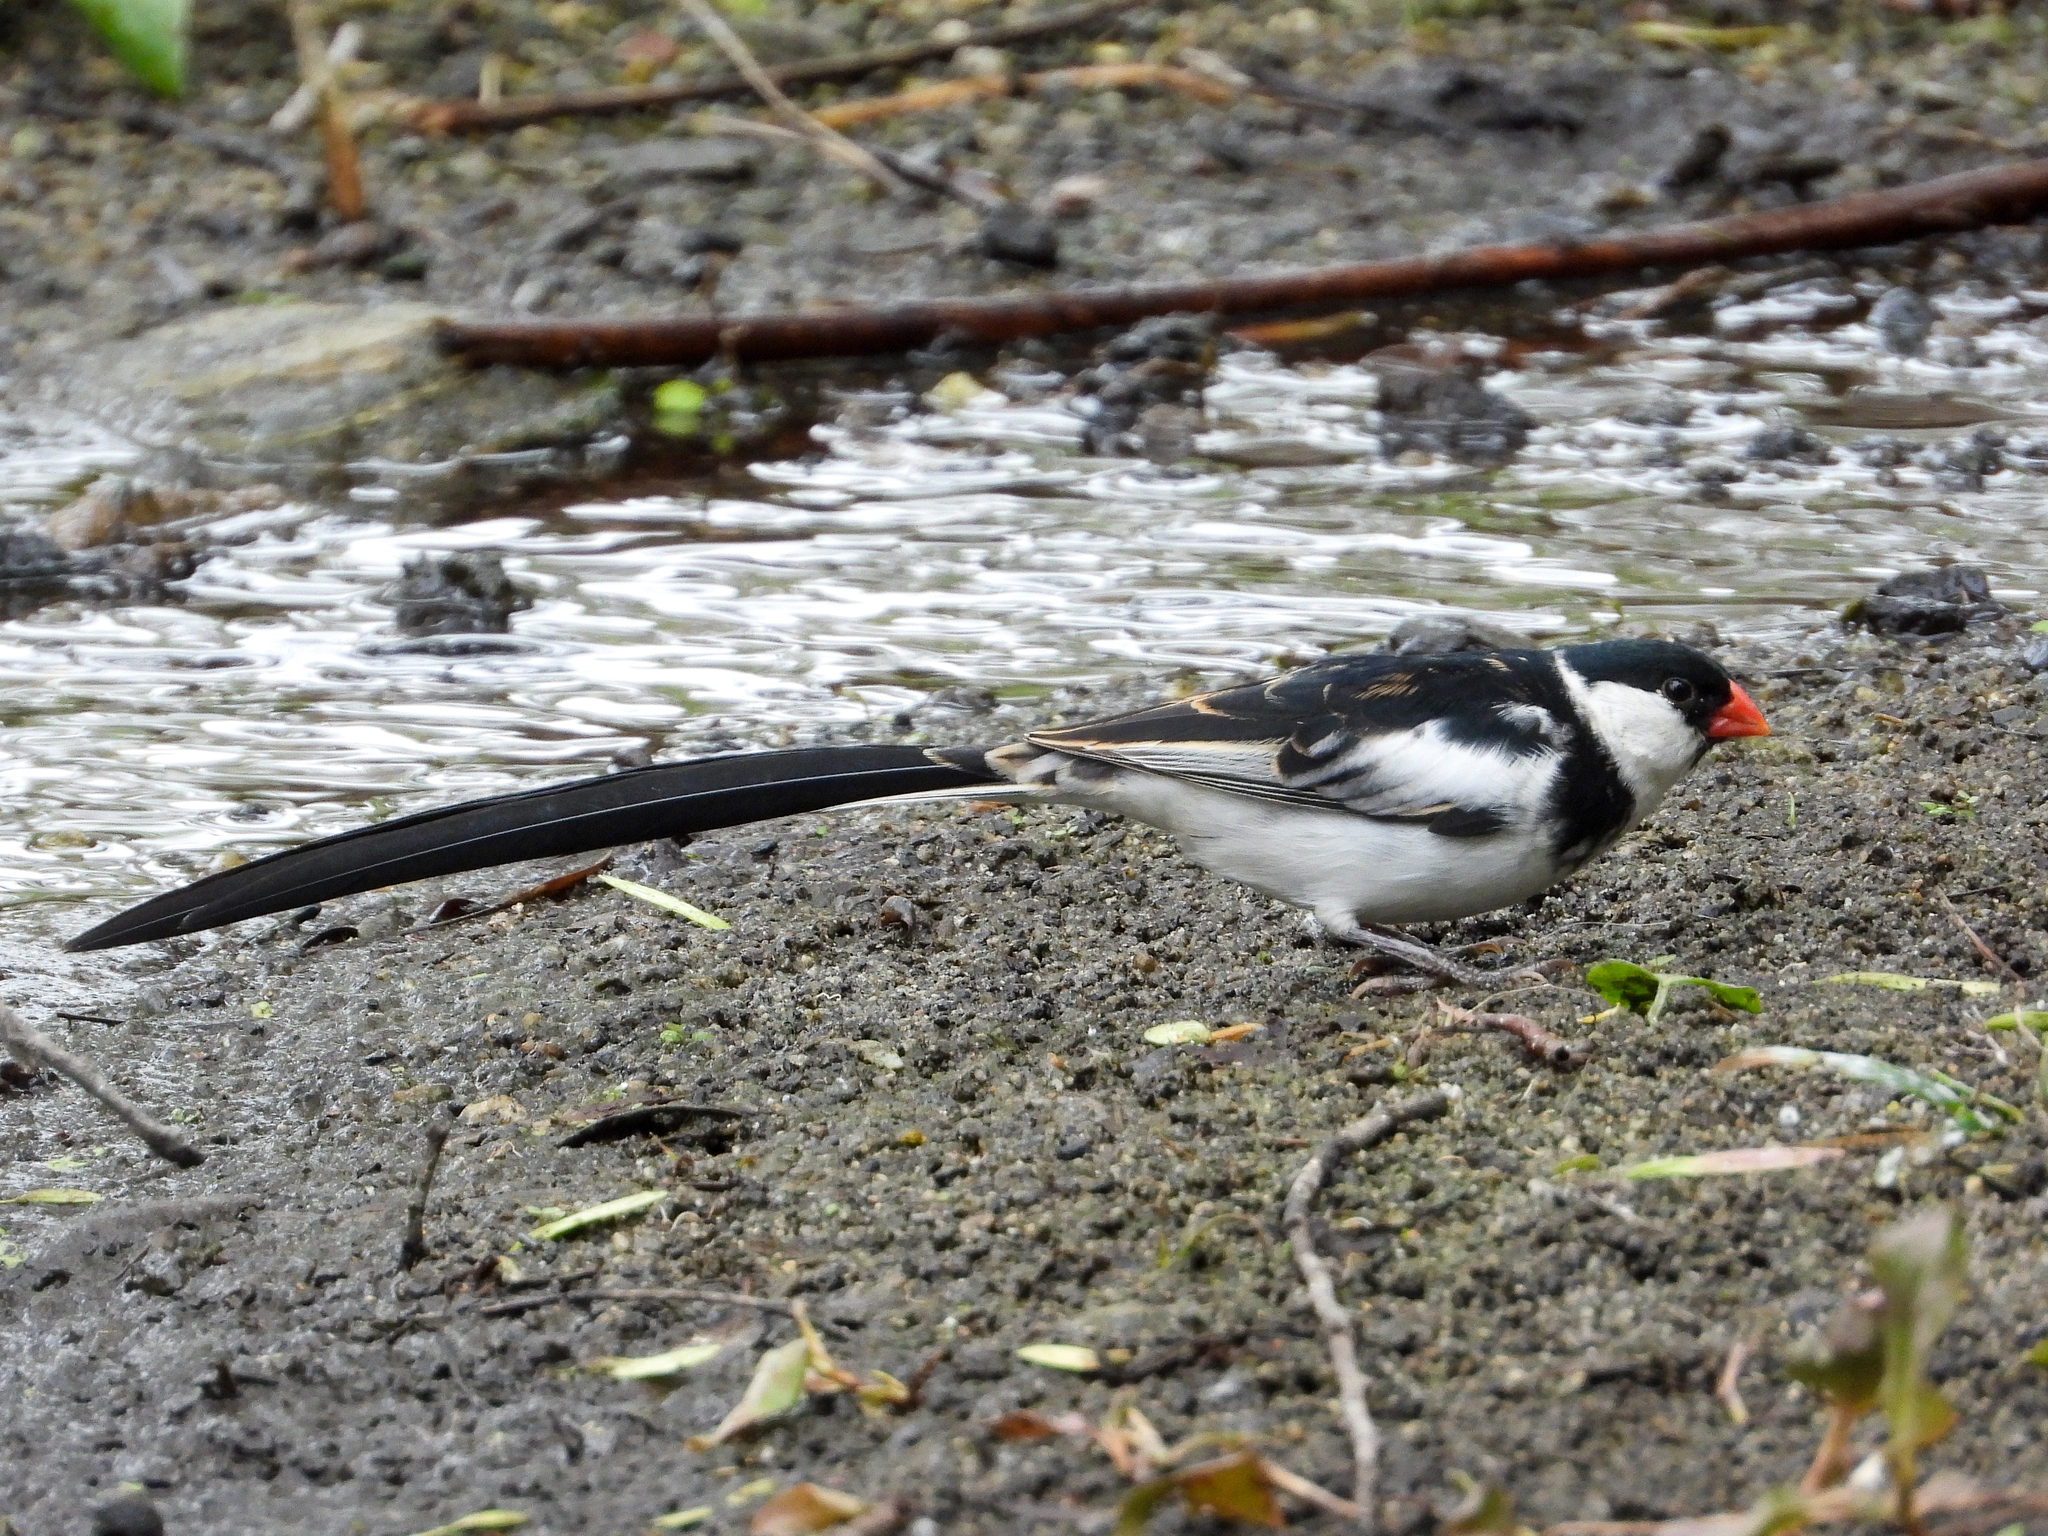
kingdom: Animalia
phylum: Chordata
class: Aves
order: Passeriformes
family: Viduidae
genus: Vidua
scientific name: Vidua macroura
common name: Pin-tailed whydah
